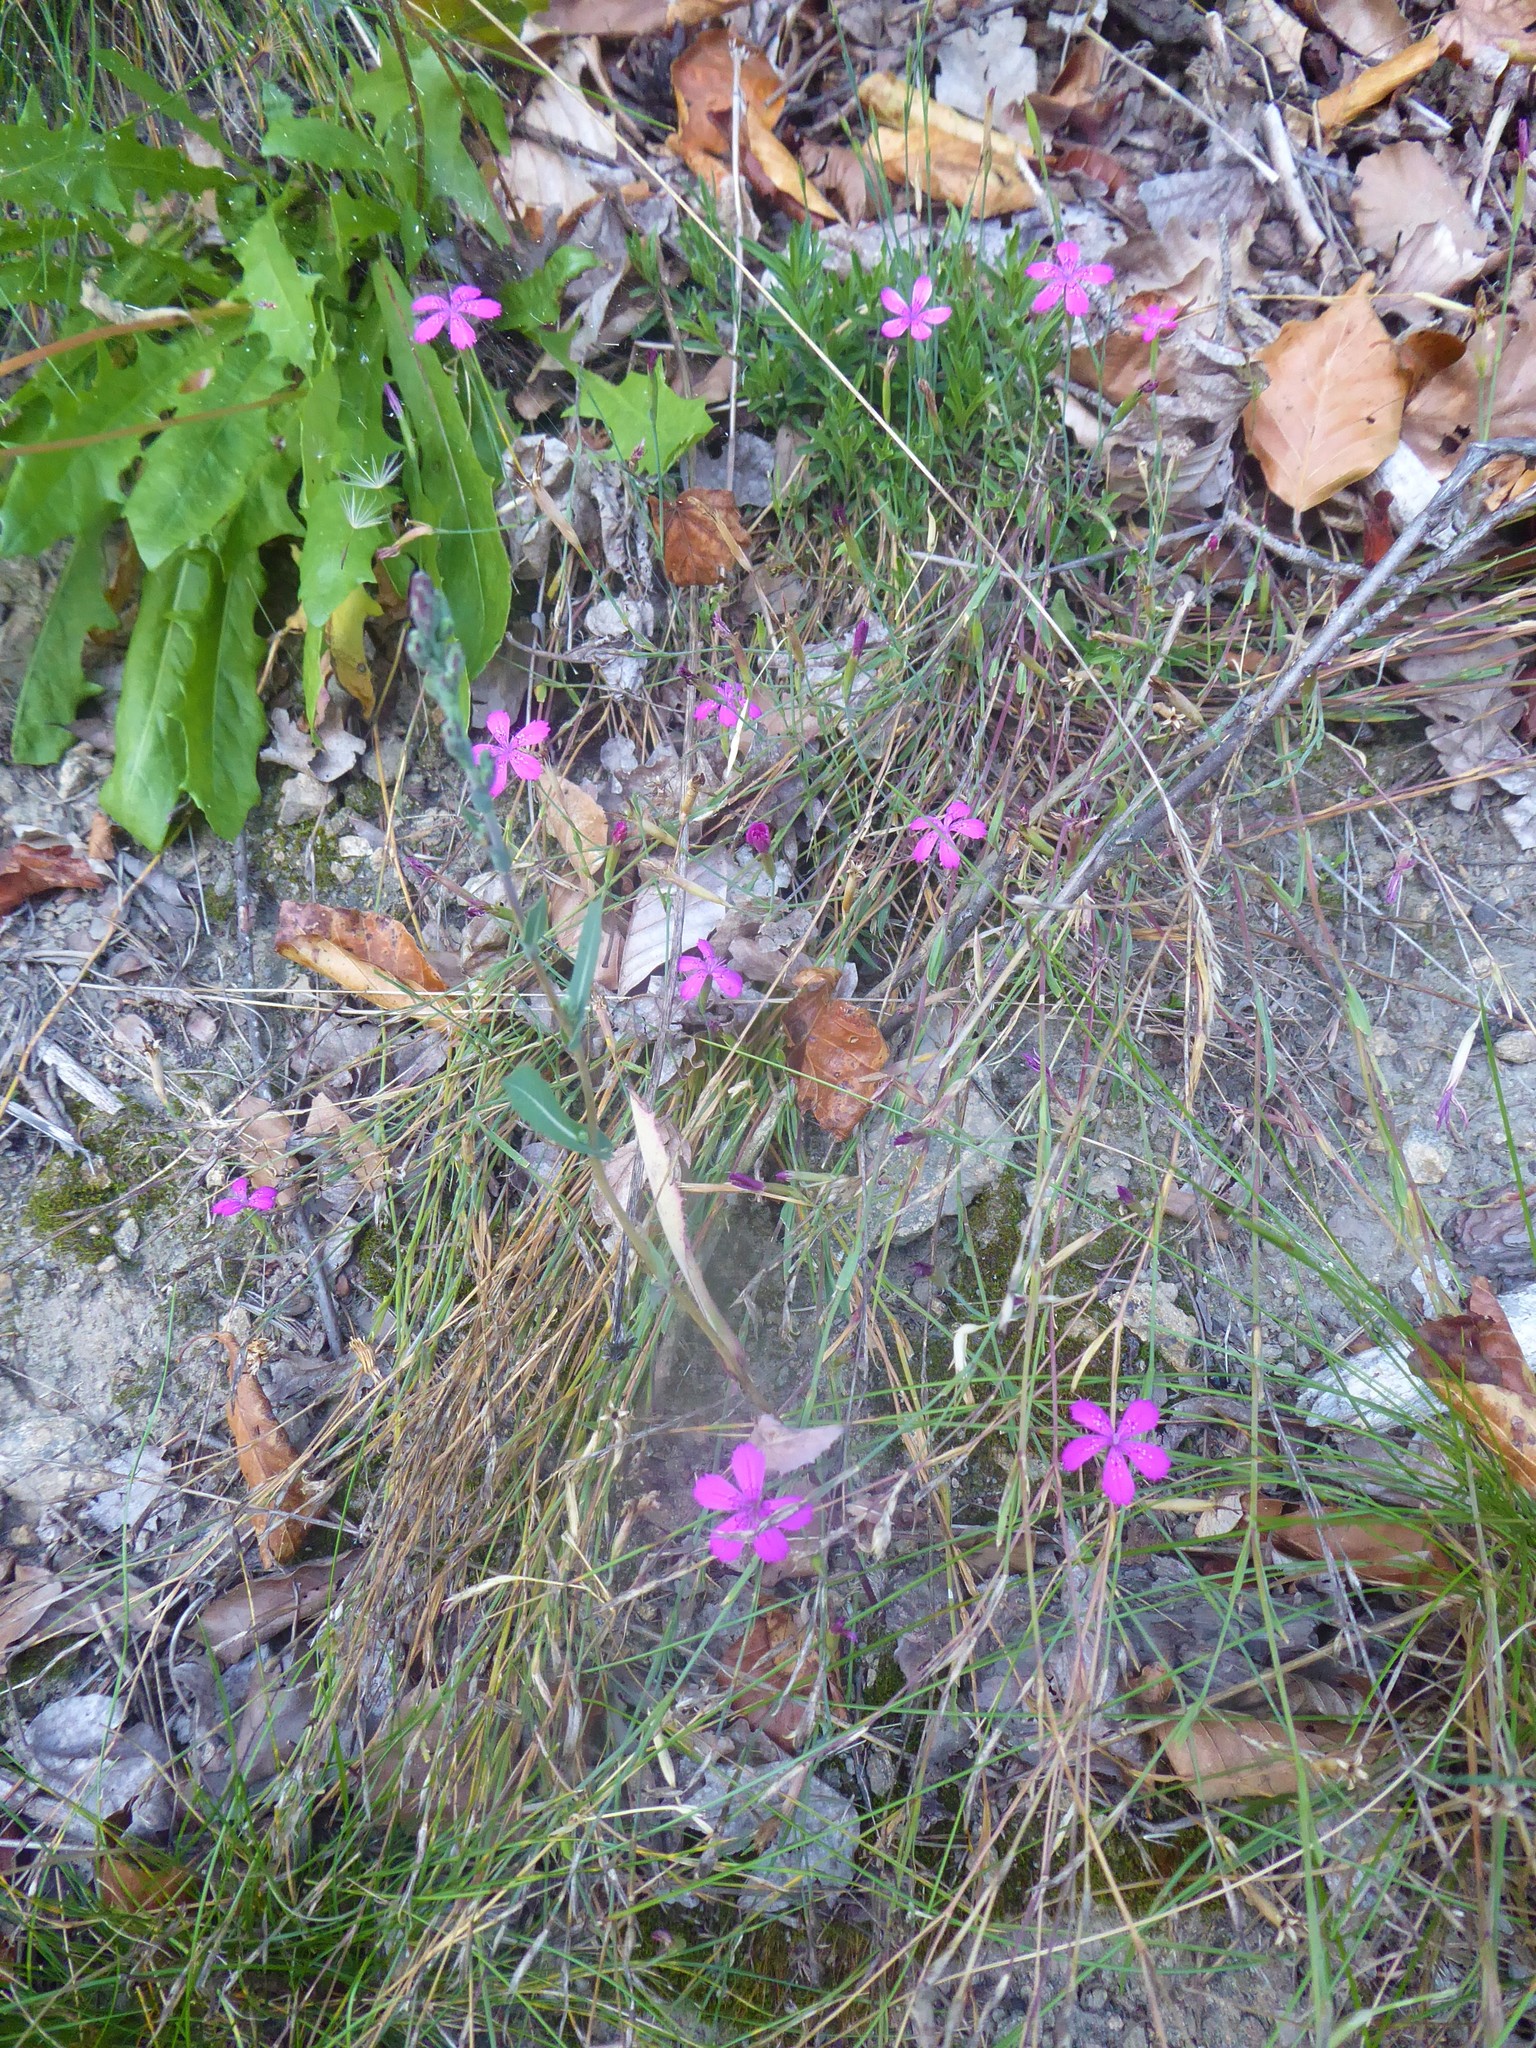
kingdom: Plantae
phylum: Tracheophyta
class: Magnoliopsida
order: Caryophyllales
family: Caryophyllaceae
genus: Dianthus
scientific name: Dianthus deltoides
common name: Maiden pink
